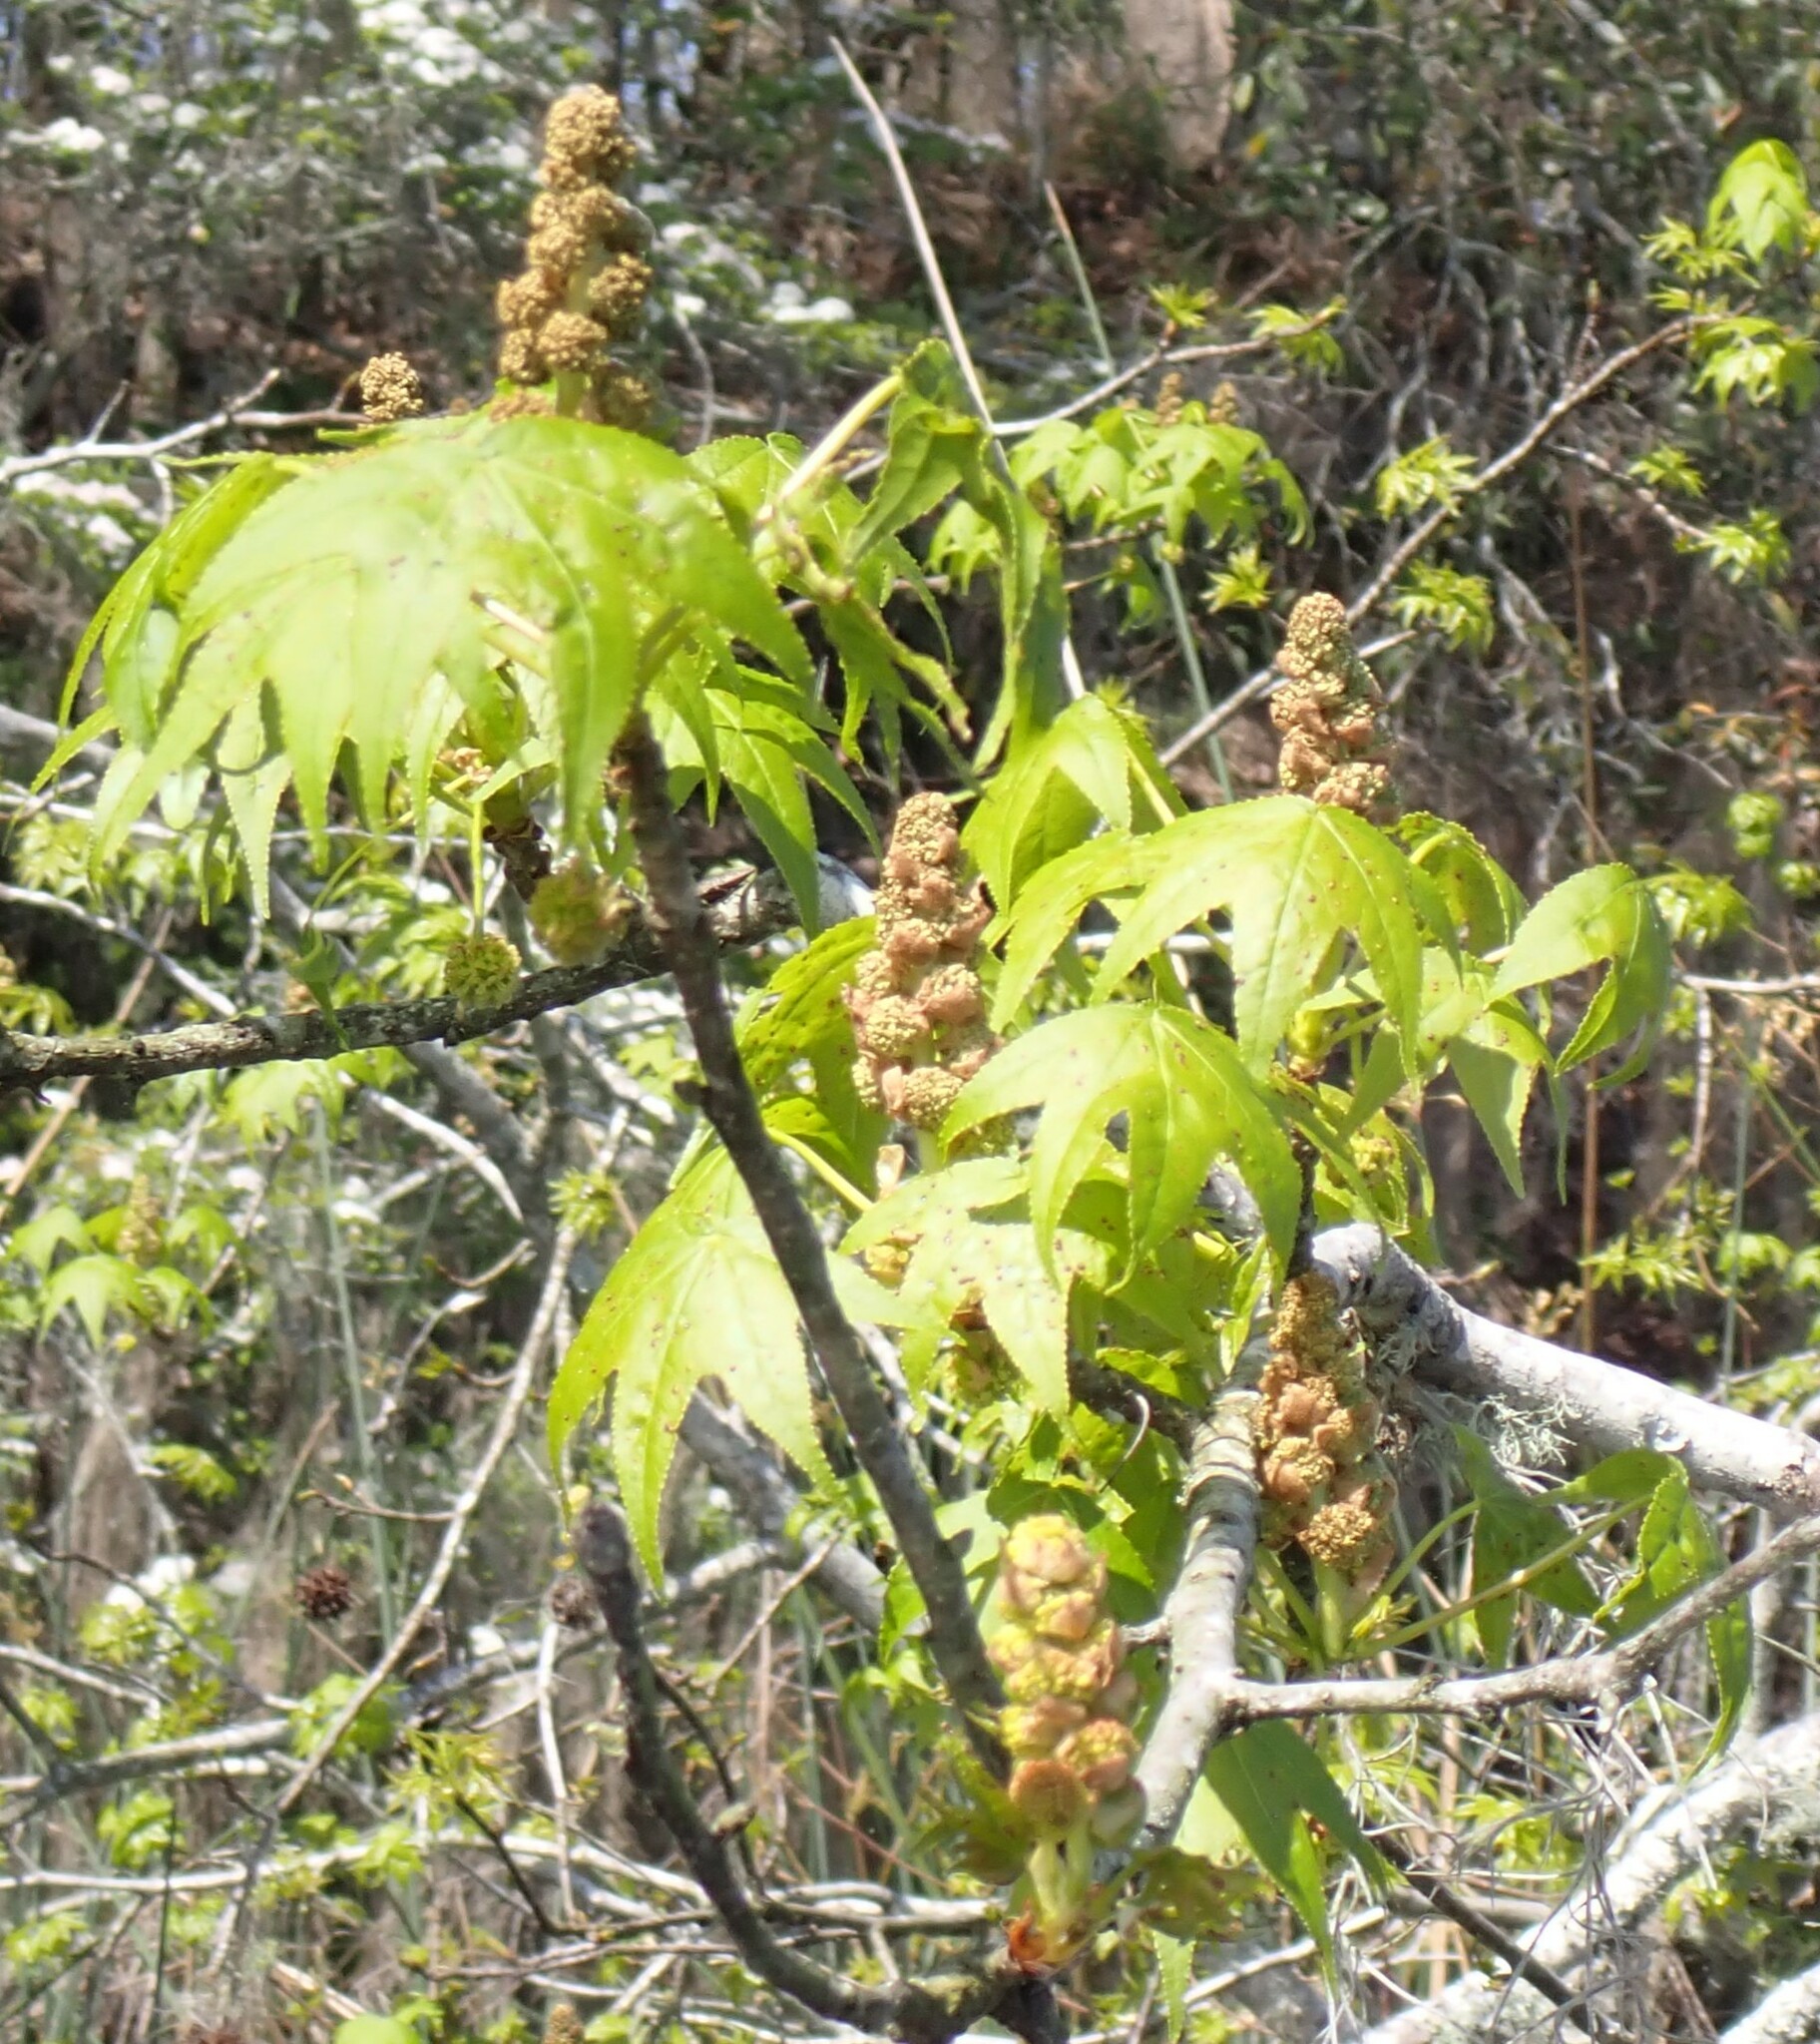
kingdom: Plantae
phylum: Tracheophyta
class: Magnoliopsida
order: Saxifragales
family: Altingiaceae
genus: Liquidambar
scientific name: Liquidambar styraciflua
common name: Sweet gum
